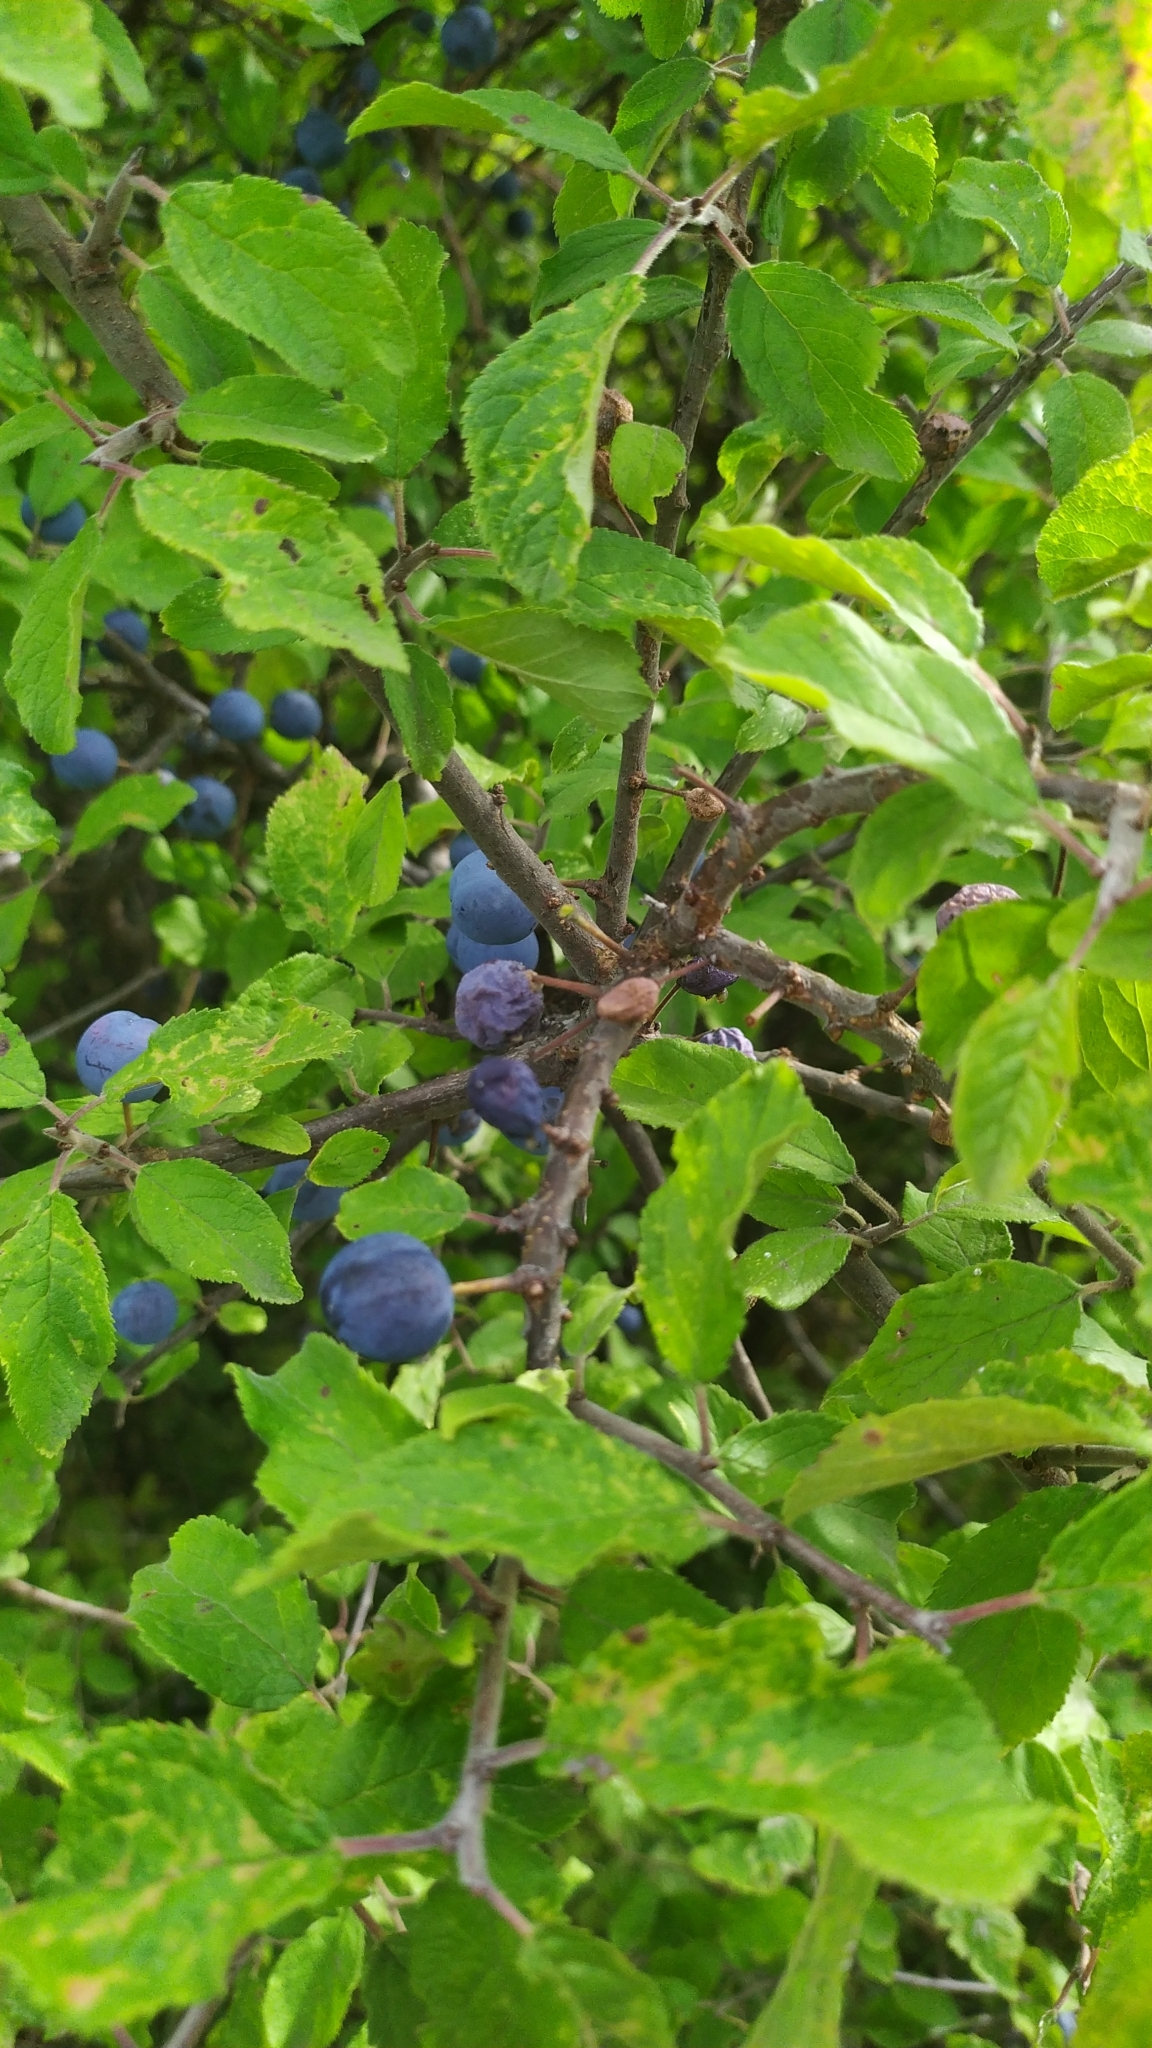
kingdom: Plantae
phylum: Tracheophyta
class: Magnoliopsida
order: Rosales
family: Rosaceae
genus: Prunus
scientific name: Prunus spinosa
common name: Blackthorn
